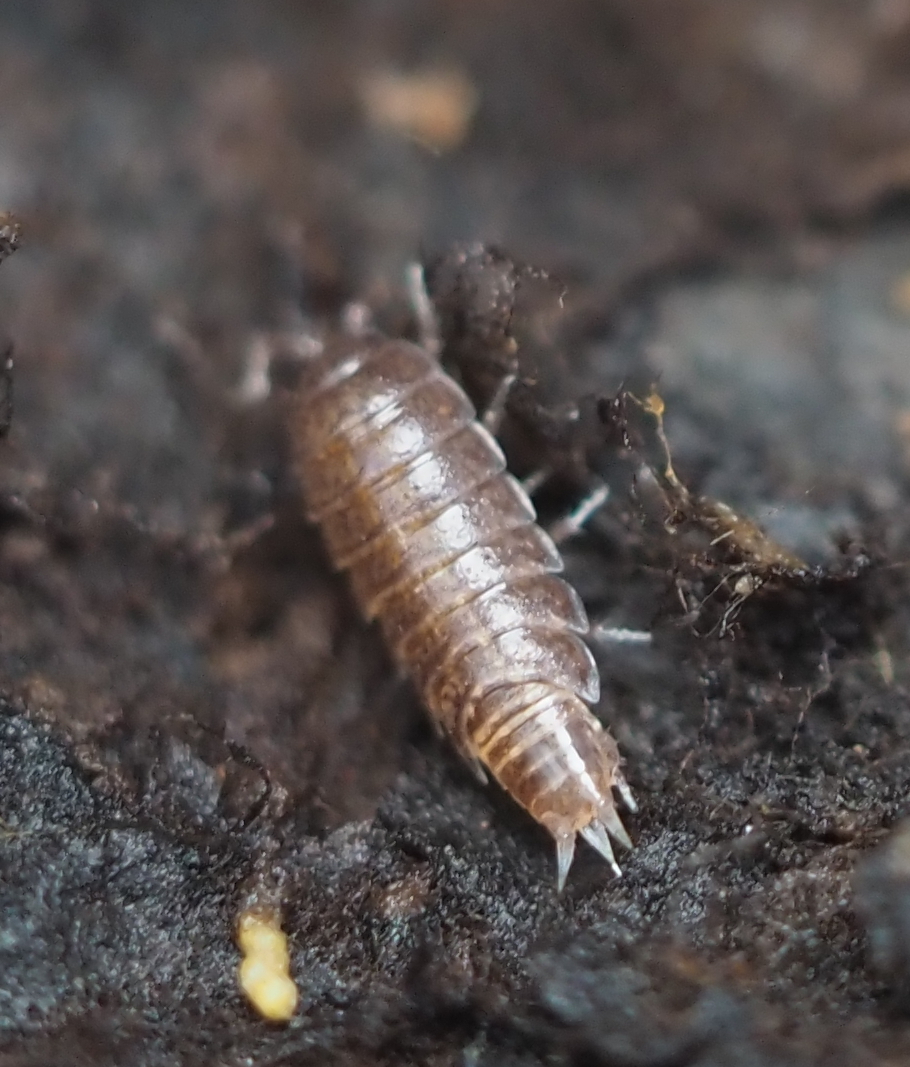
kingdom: Animalia
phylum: Arthropoda
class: Malacostraca
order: Isopoda
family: Trichoniscidae
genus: Hyloniscus
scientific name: Hyloniscus riparius
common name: Isopod
